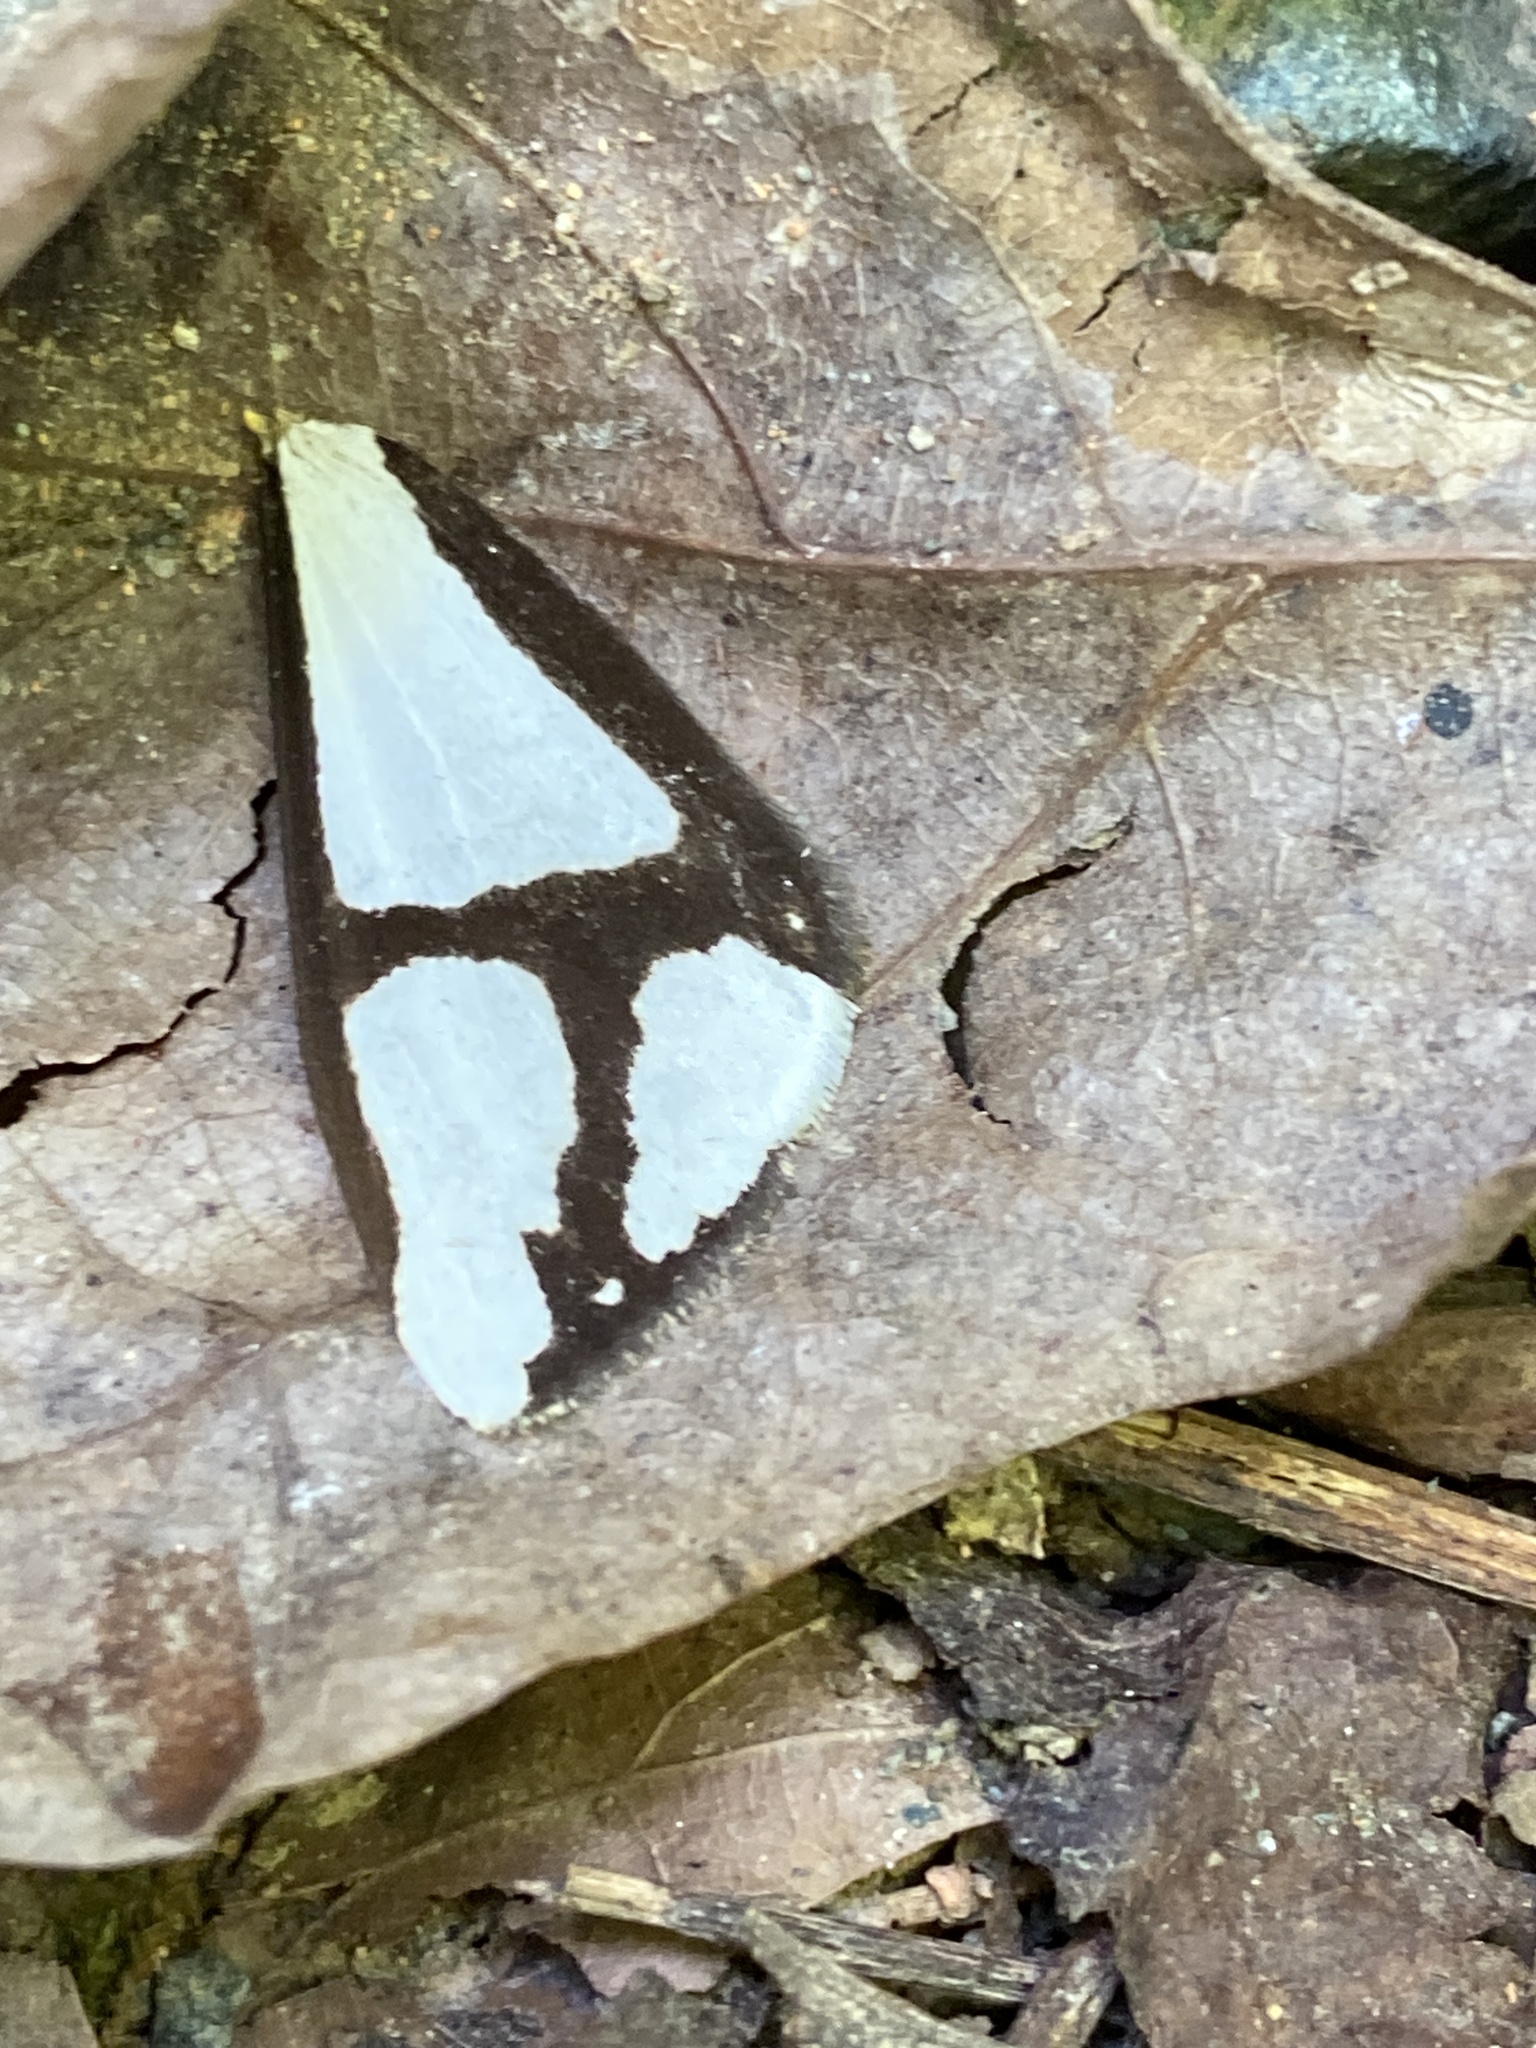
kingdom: Animalia
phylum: Arthropoda
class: Insecta
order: Lepidoptera
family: Erebidae
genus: Haploa
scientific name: Haploa contigua
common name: Neighbor moth
